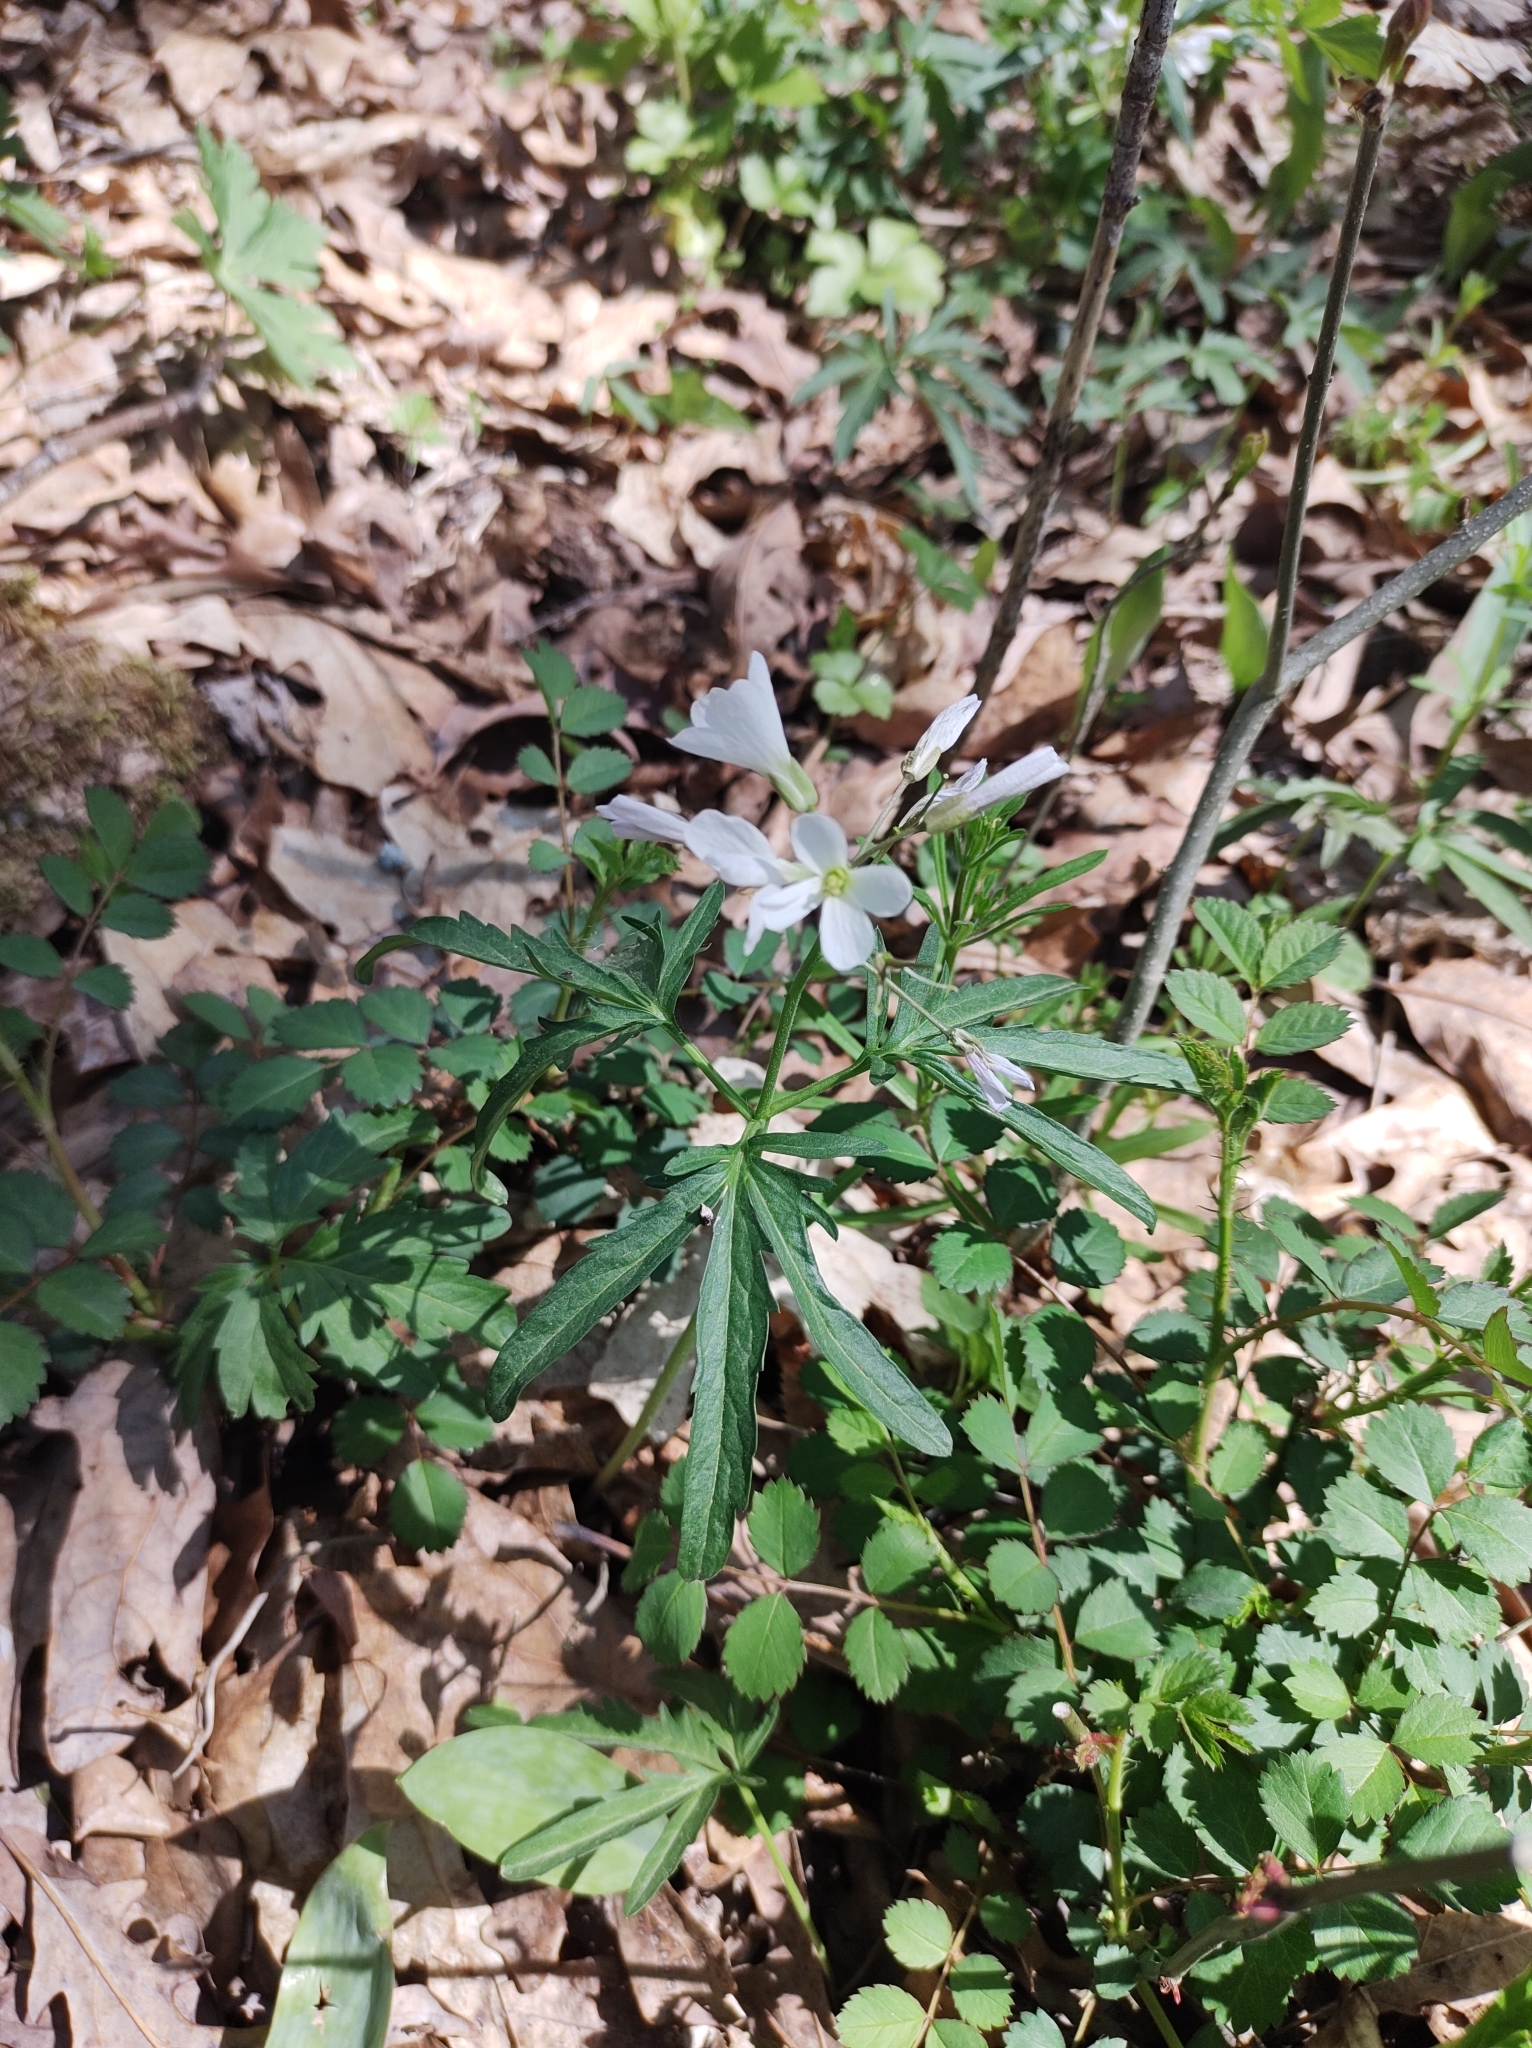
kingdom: Plantae
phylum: Tracheophyta
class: Magnoliopsida
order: Brassicales
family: Brassicaceae
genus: Cardamine
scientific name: Cardamine concatenata
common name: Cut-leaf toothcup
